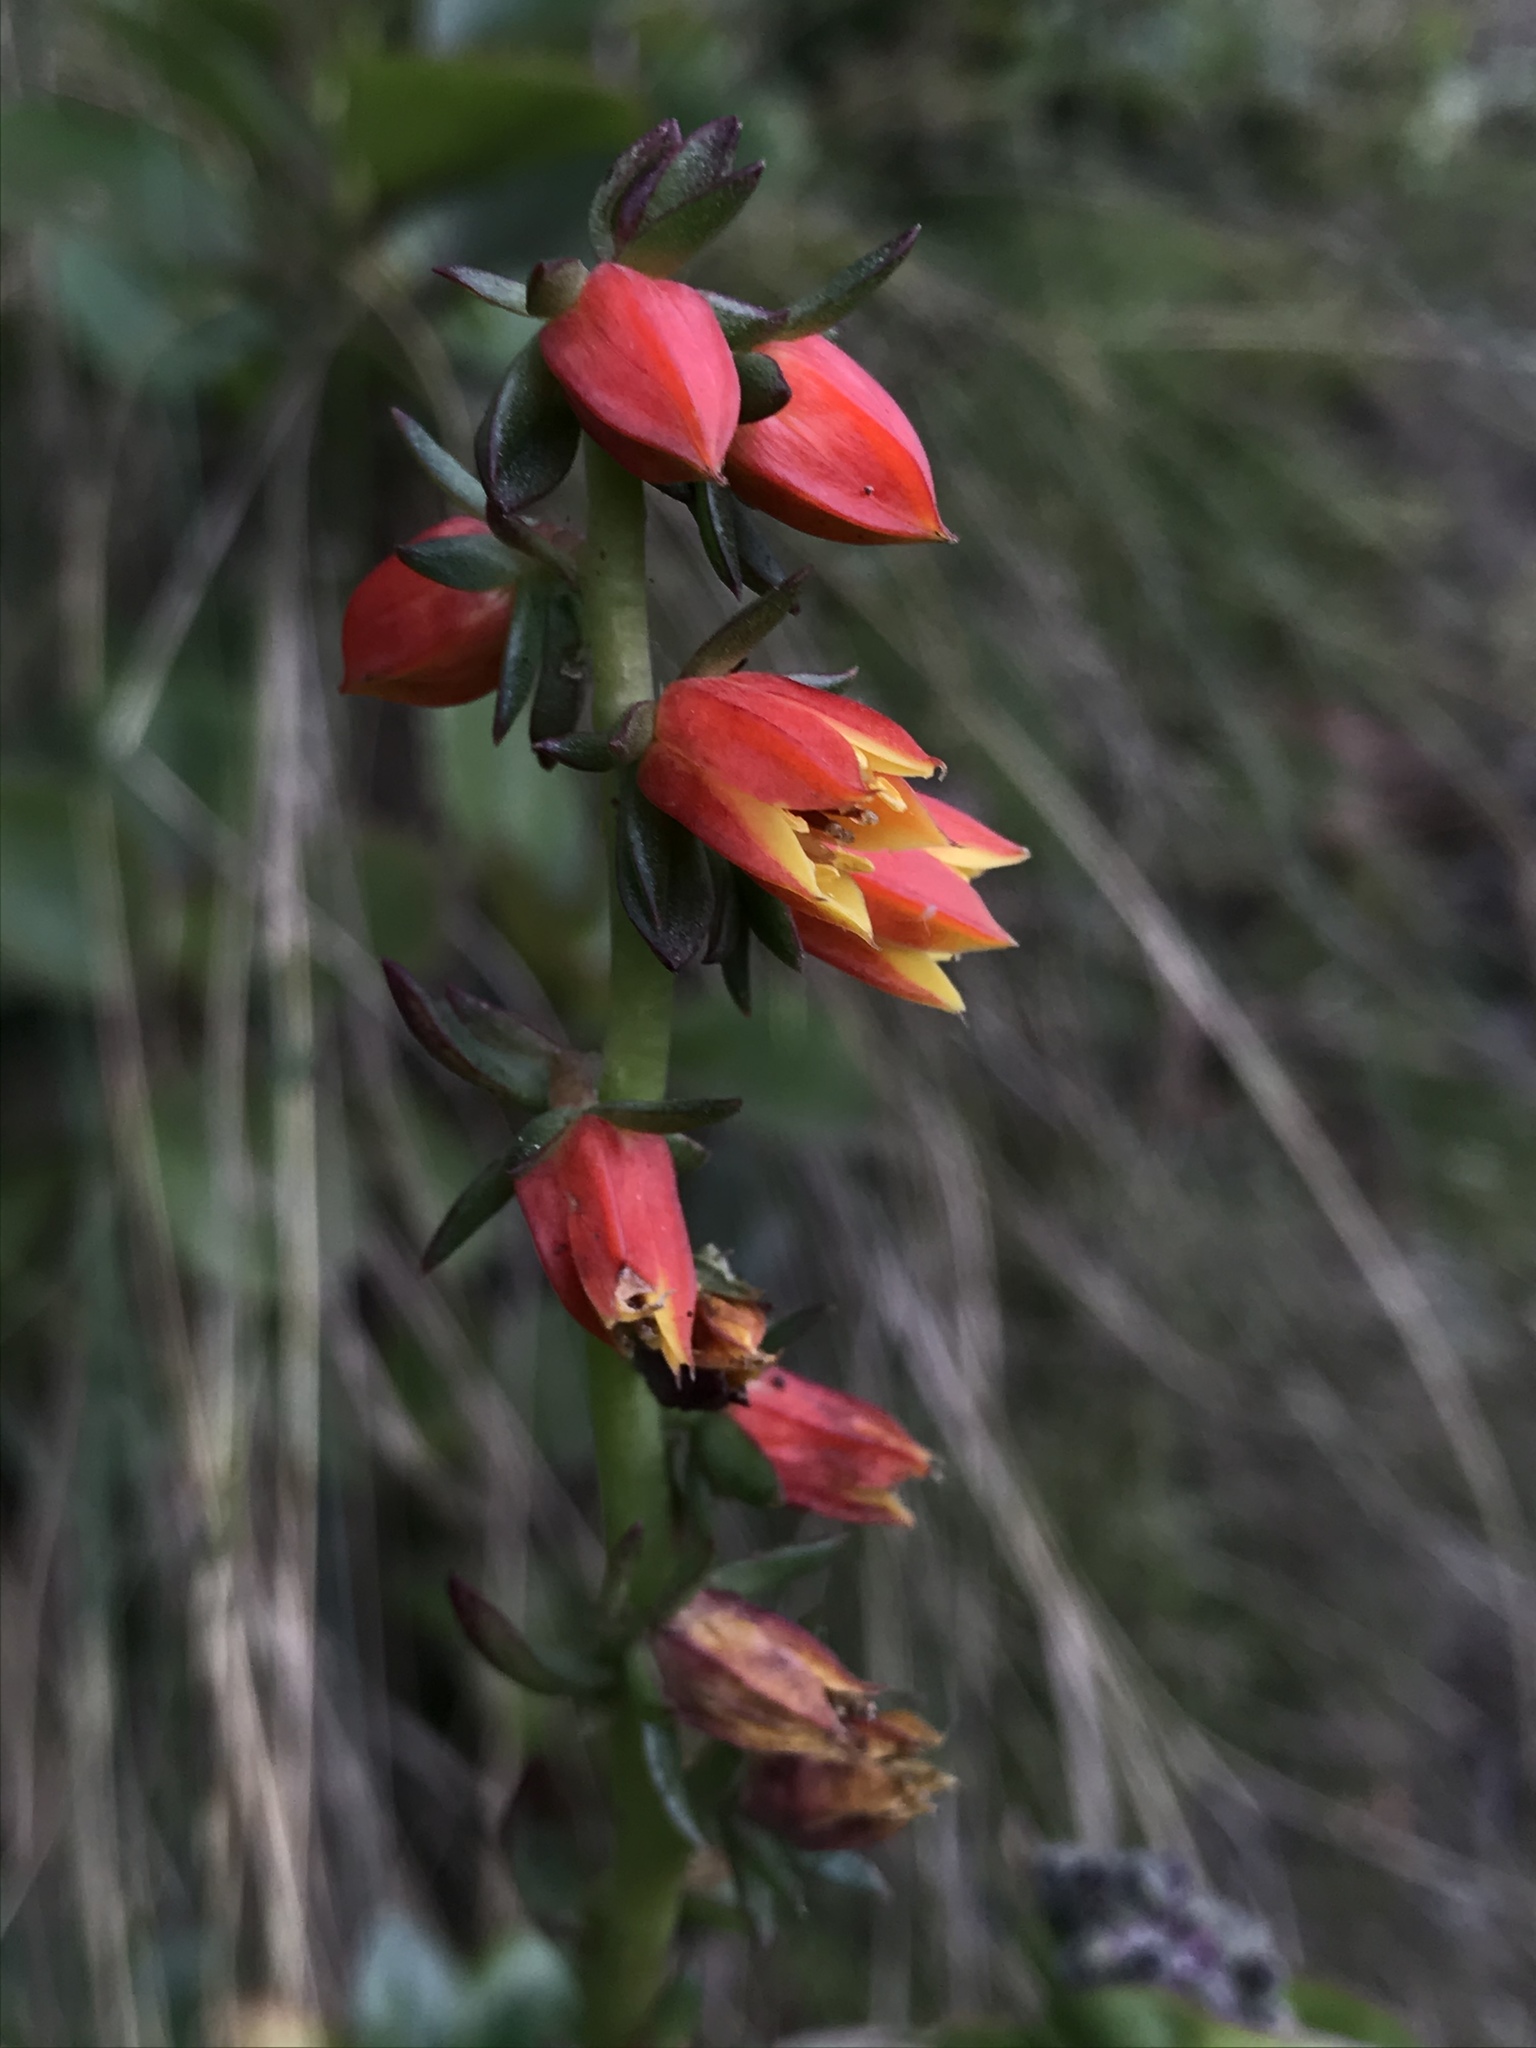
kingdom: Plantae
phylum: Tracheophyta
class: Magnoliopsida
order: Saxifragales
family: Crassulaceae
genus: Echeveria
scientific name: Echeveria bicolor
